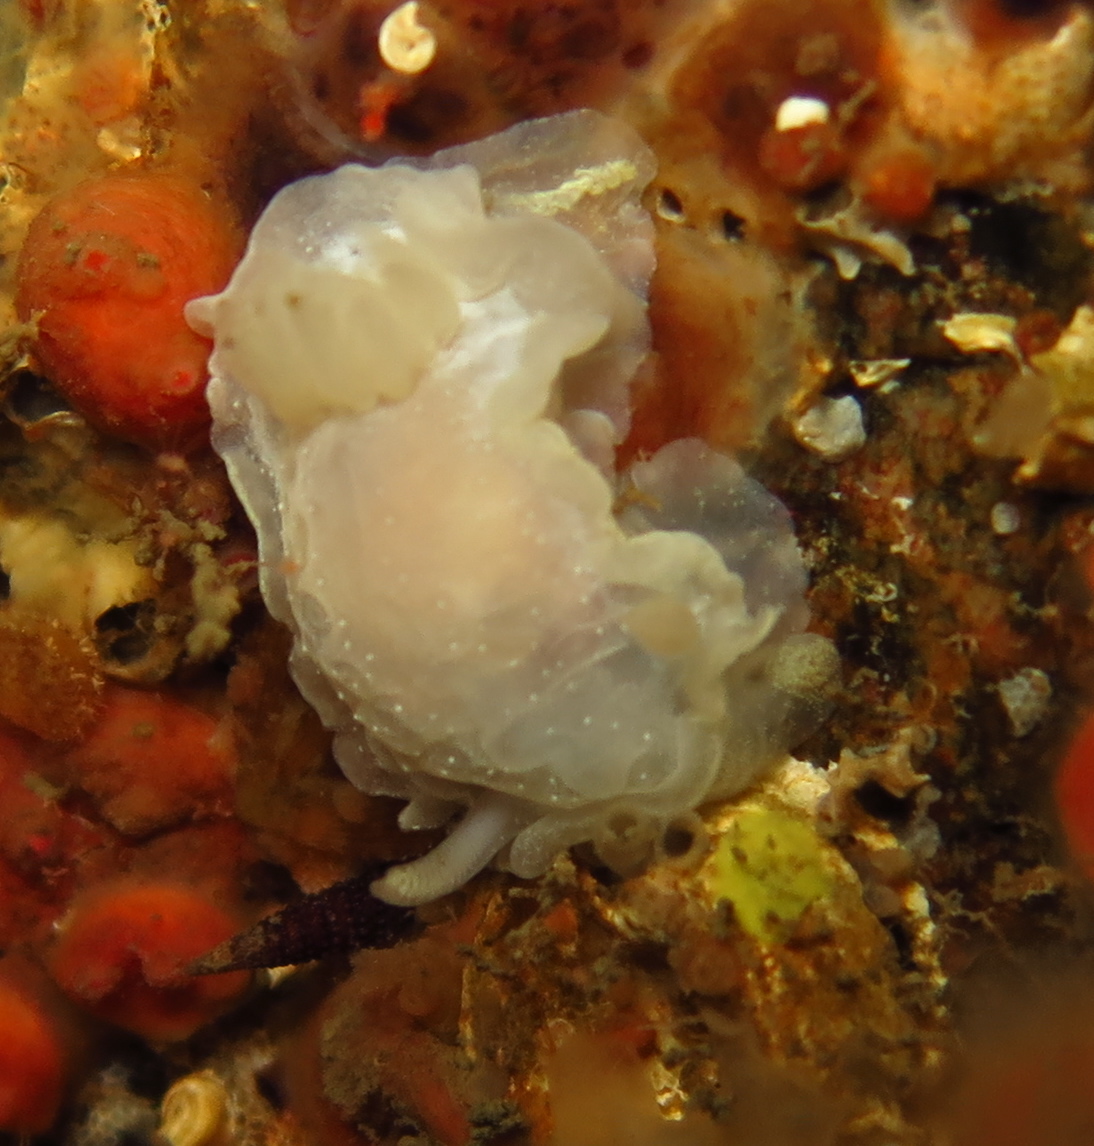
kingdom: Animalia
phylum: Mollusca
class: Gastropoda
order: Nudibranchia
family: Goniodorididae
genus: Okenia
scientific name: Okenia
